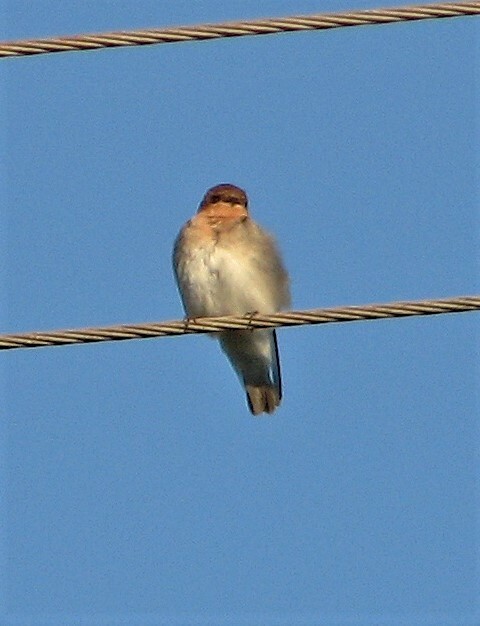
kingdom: Animalia
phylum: Chordata
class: Aves
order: Passeriformes
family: Hirundinidae
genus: Alopochelidon
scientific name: Alopochelidon fucata
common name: Tawny-headed swallow
